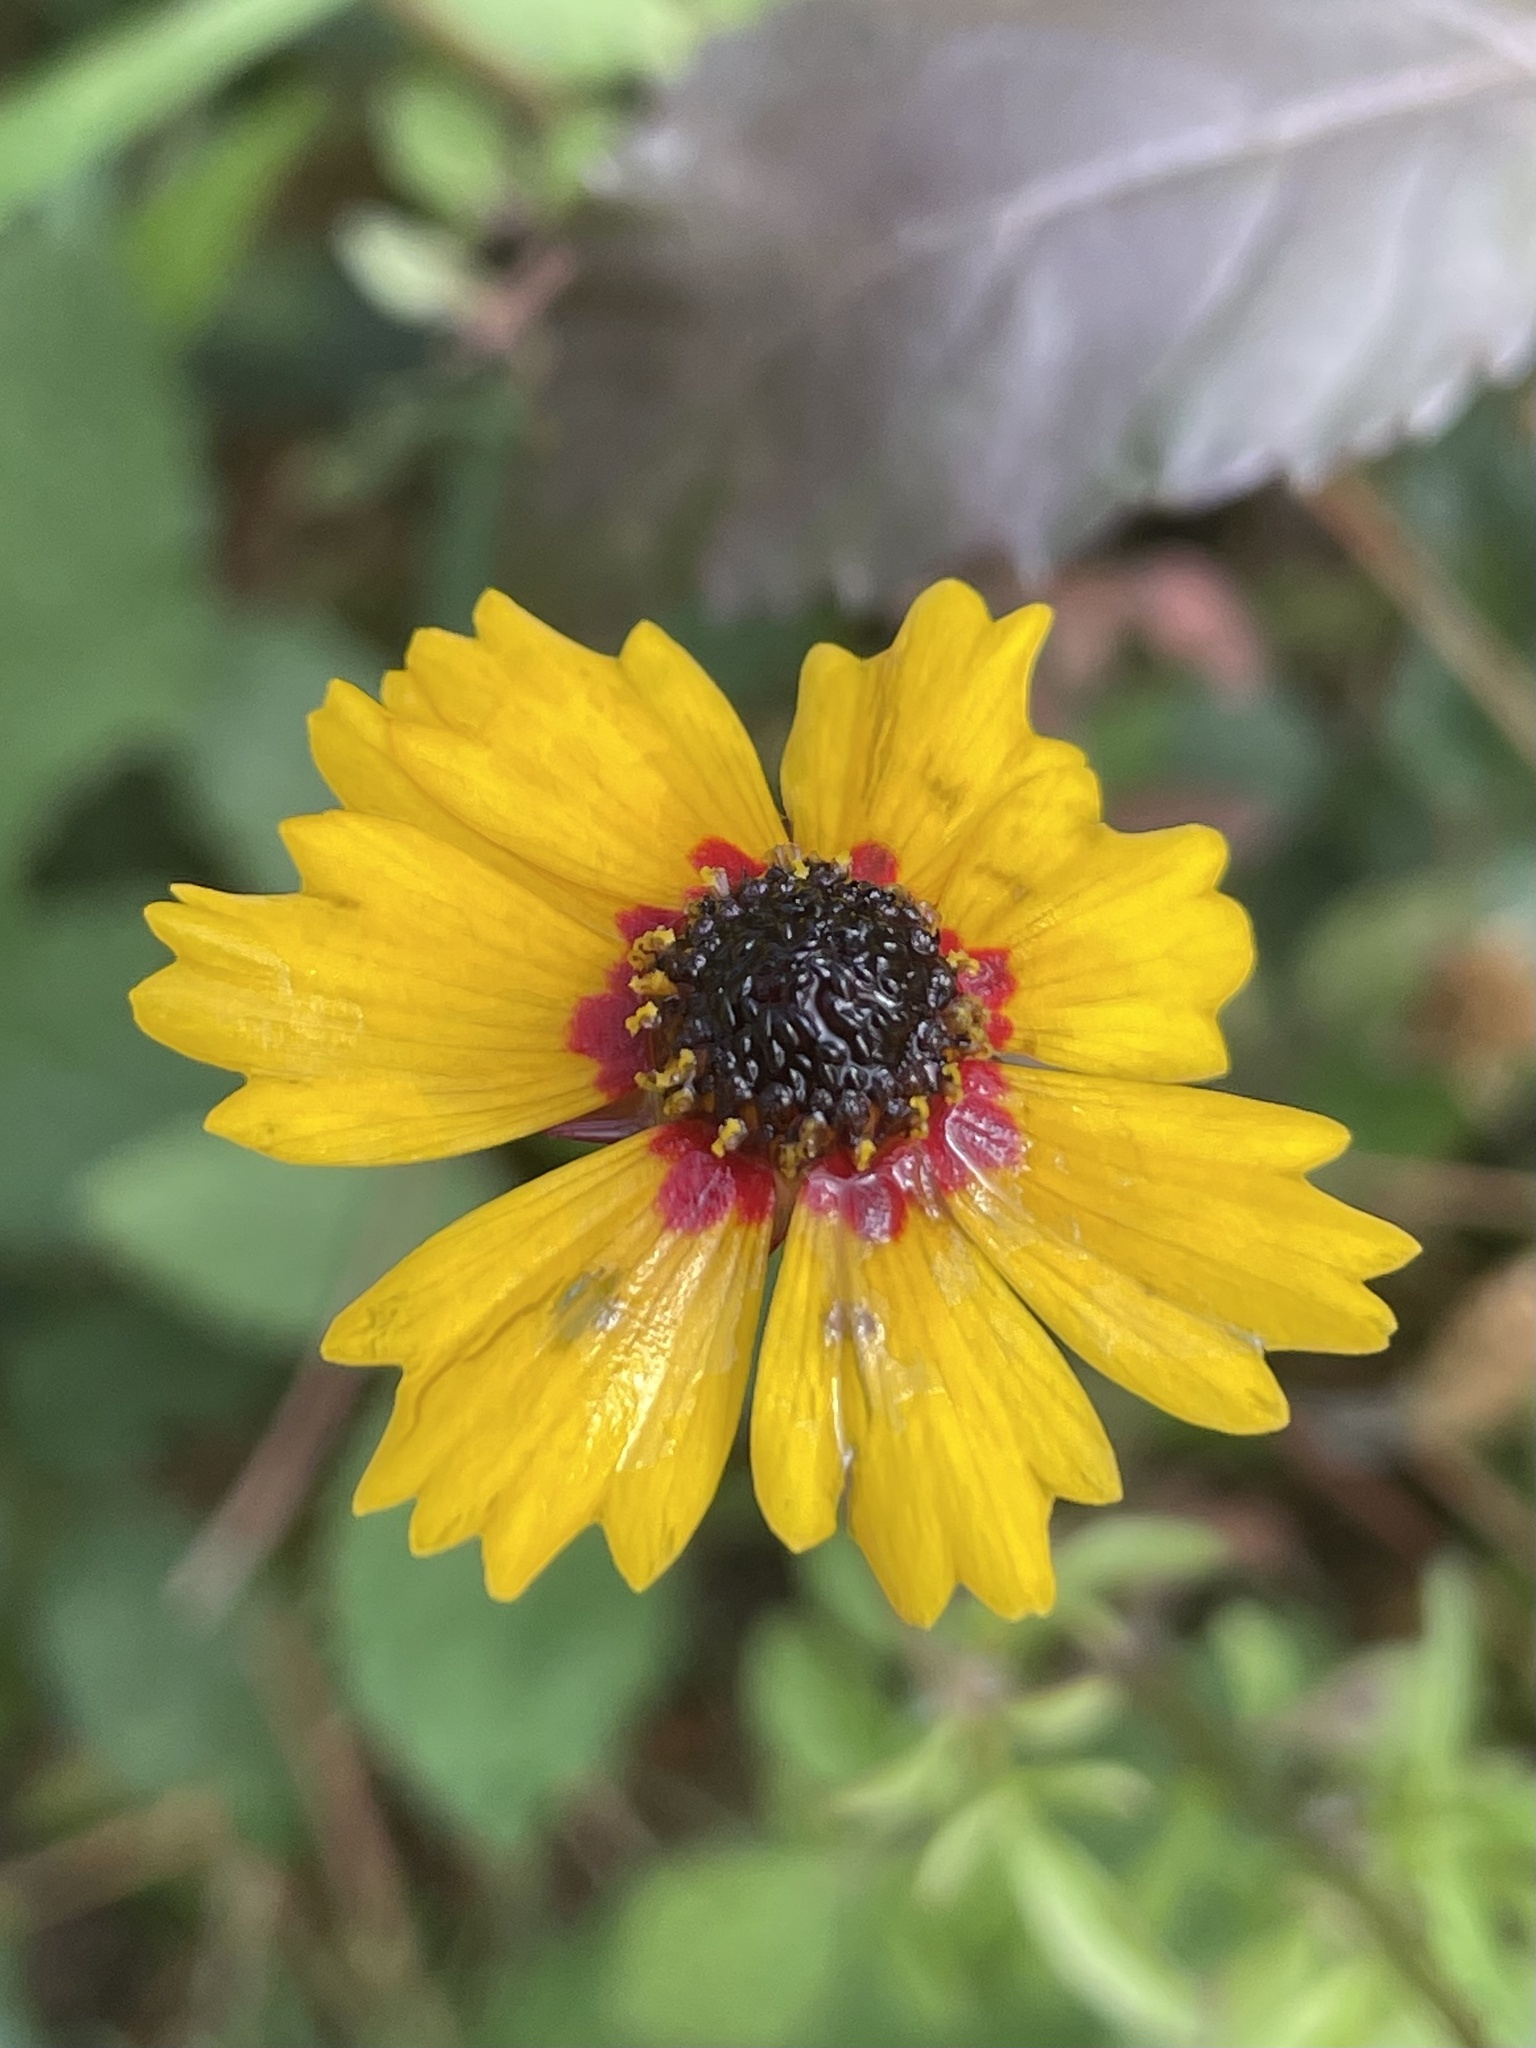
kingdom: Plantae
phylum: Tracheophyta
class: Magnoliopsida
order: Asterales
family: Asteraceae
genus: Coreopsis
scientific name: Coreopsis basalis
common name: Golden-mane coreopsis
